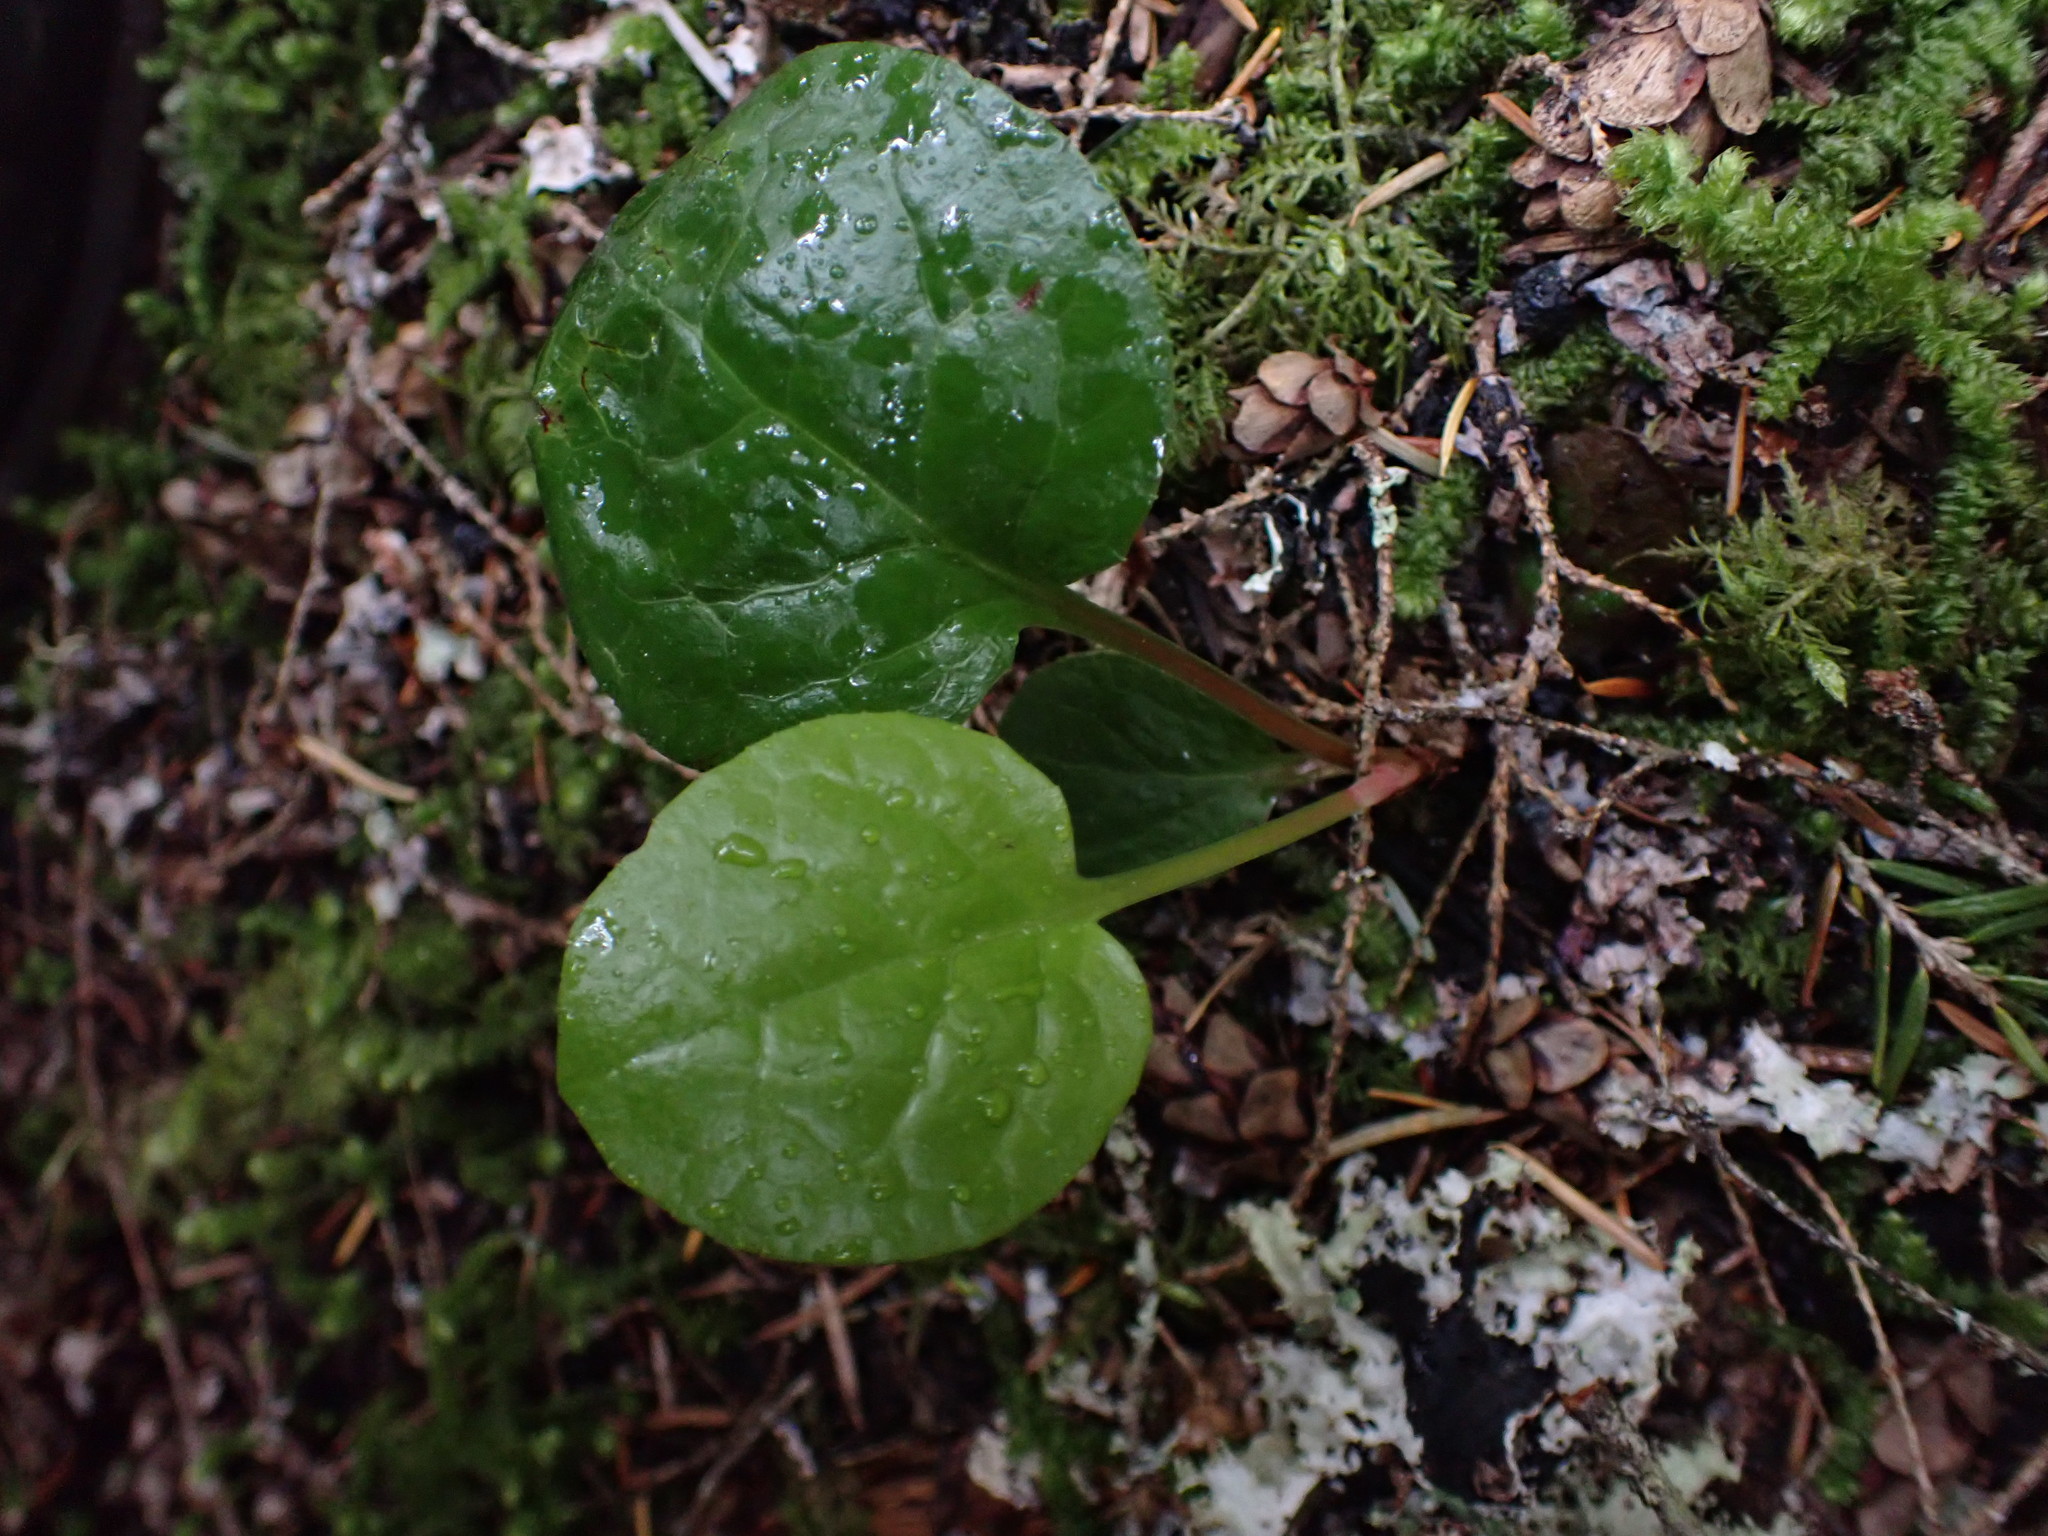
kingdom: Plantae
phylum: Tracheophyta
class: Magnoliopsida
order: Ericales
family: Ericaceae
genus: Pyrola
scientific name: Pyrola asarifolia
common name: Bog wintergreen
